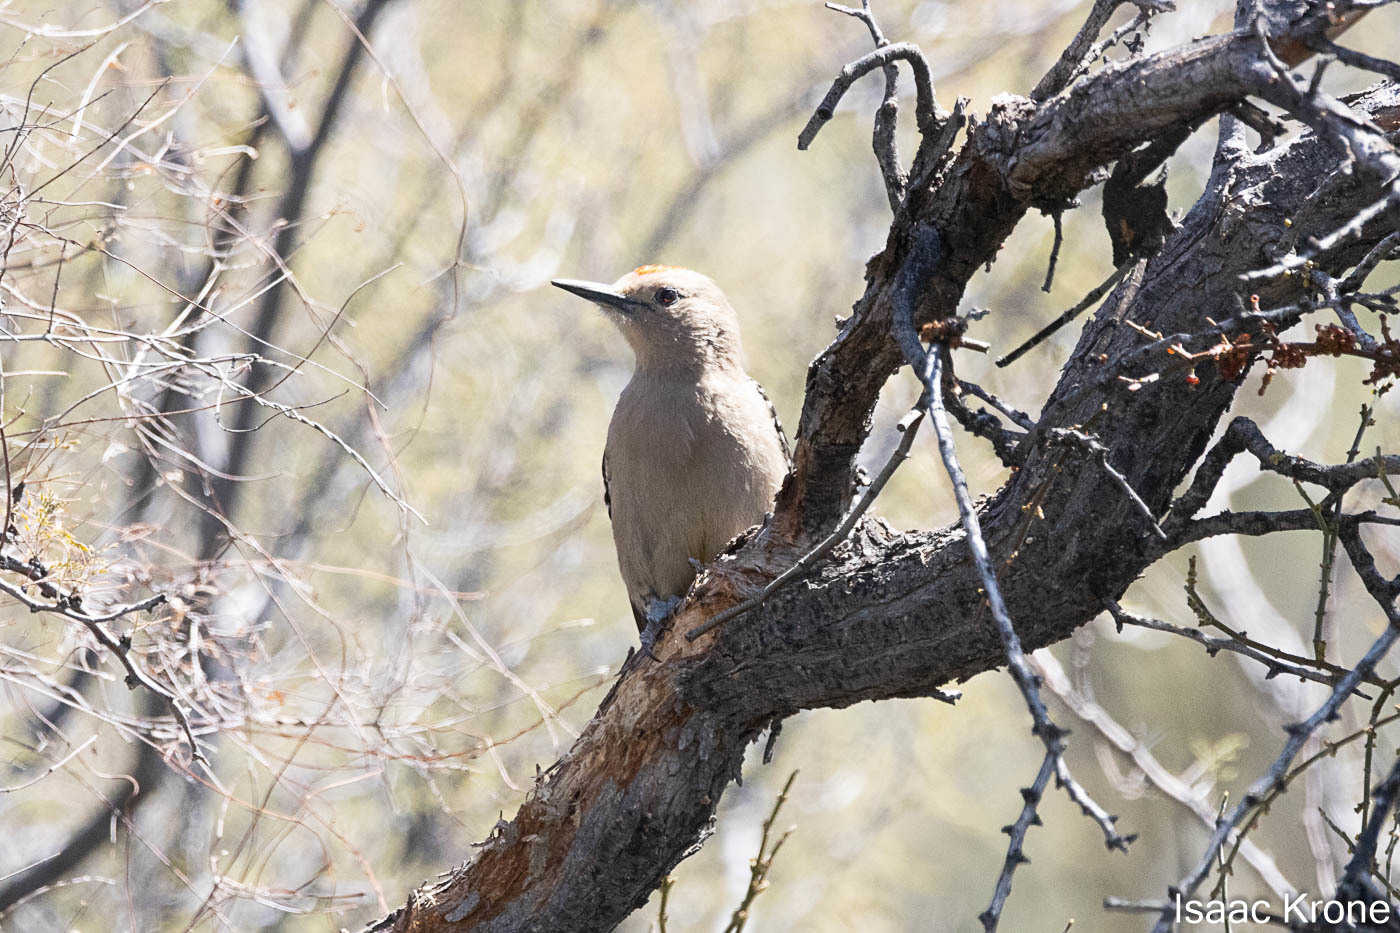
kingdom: Animalia
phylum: Chordata
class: Aves
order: Piciformes
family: Picidae
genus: Melanerpes
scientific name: Melanerpes uropygialis
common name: Gila woodpecker
